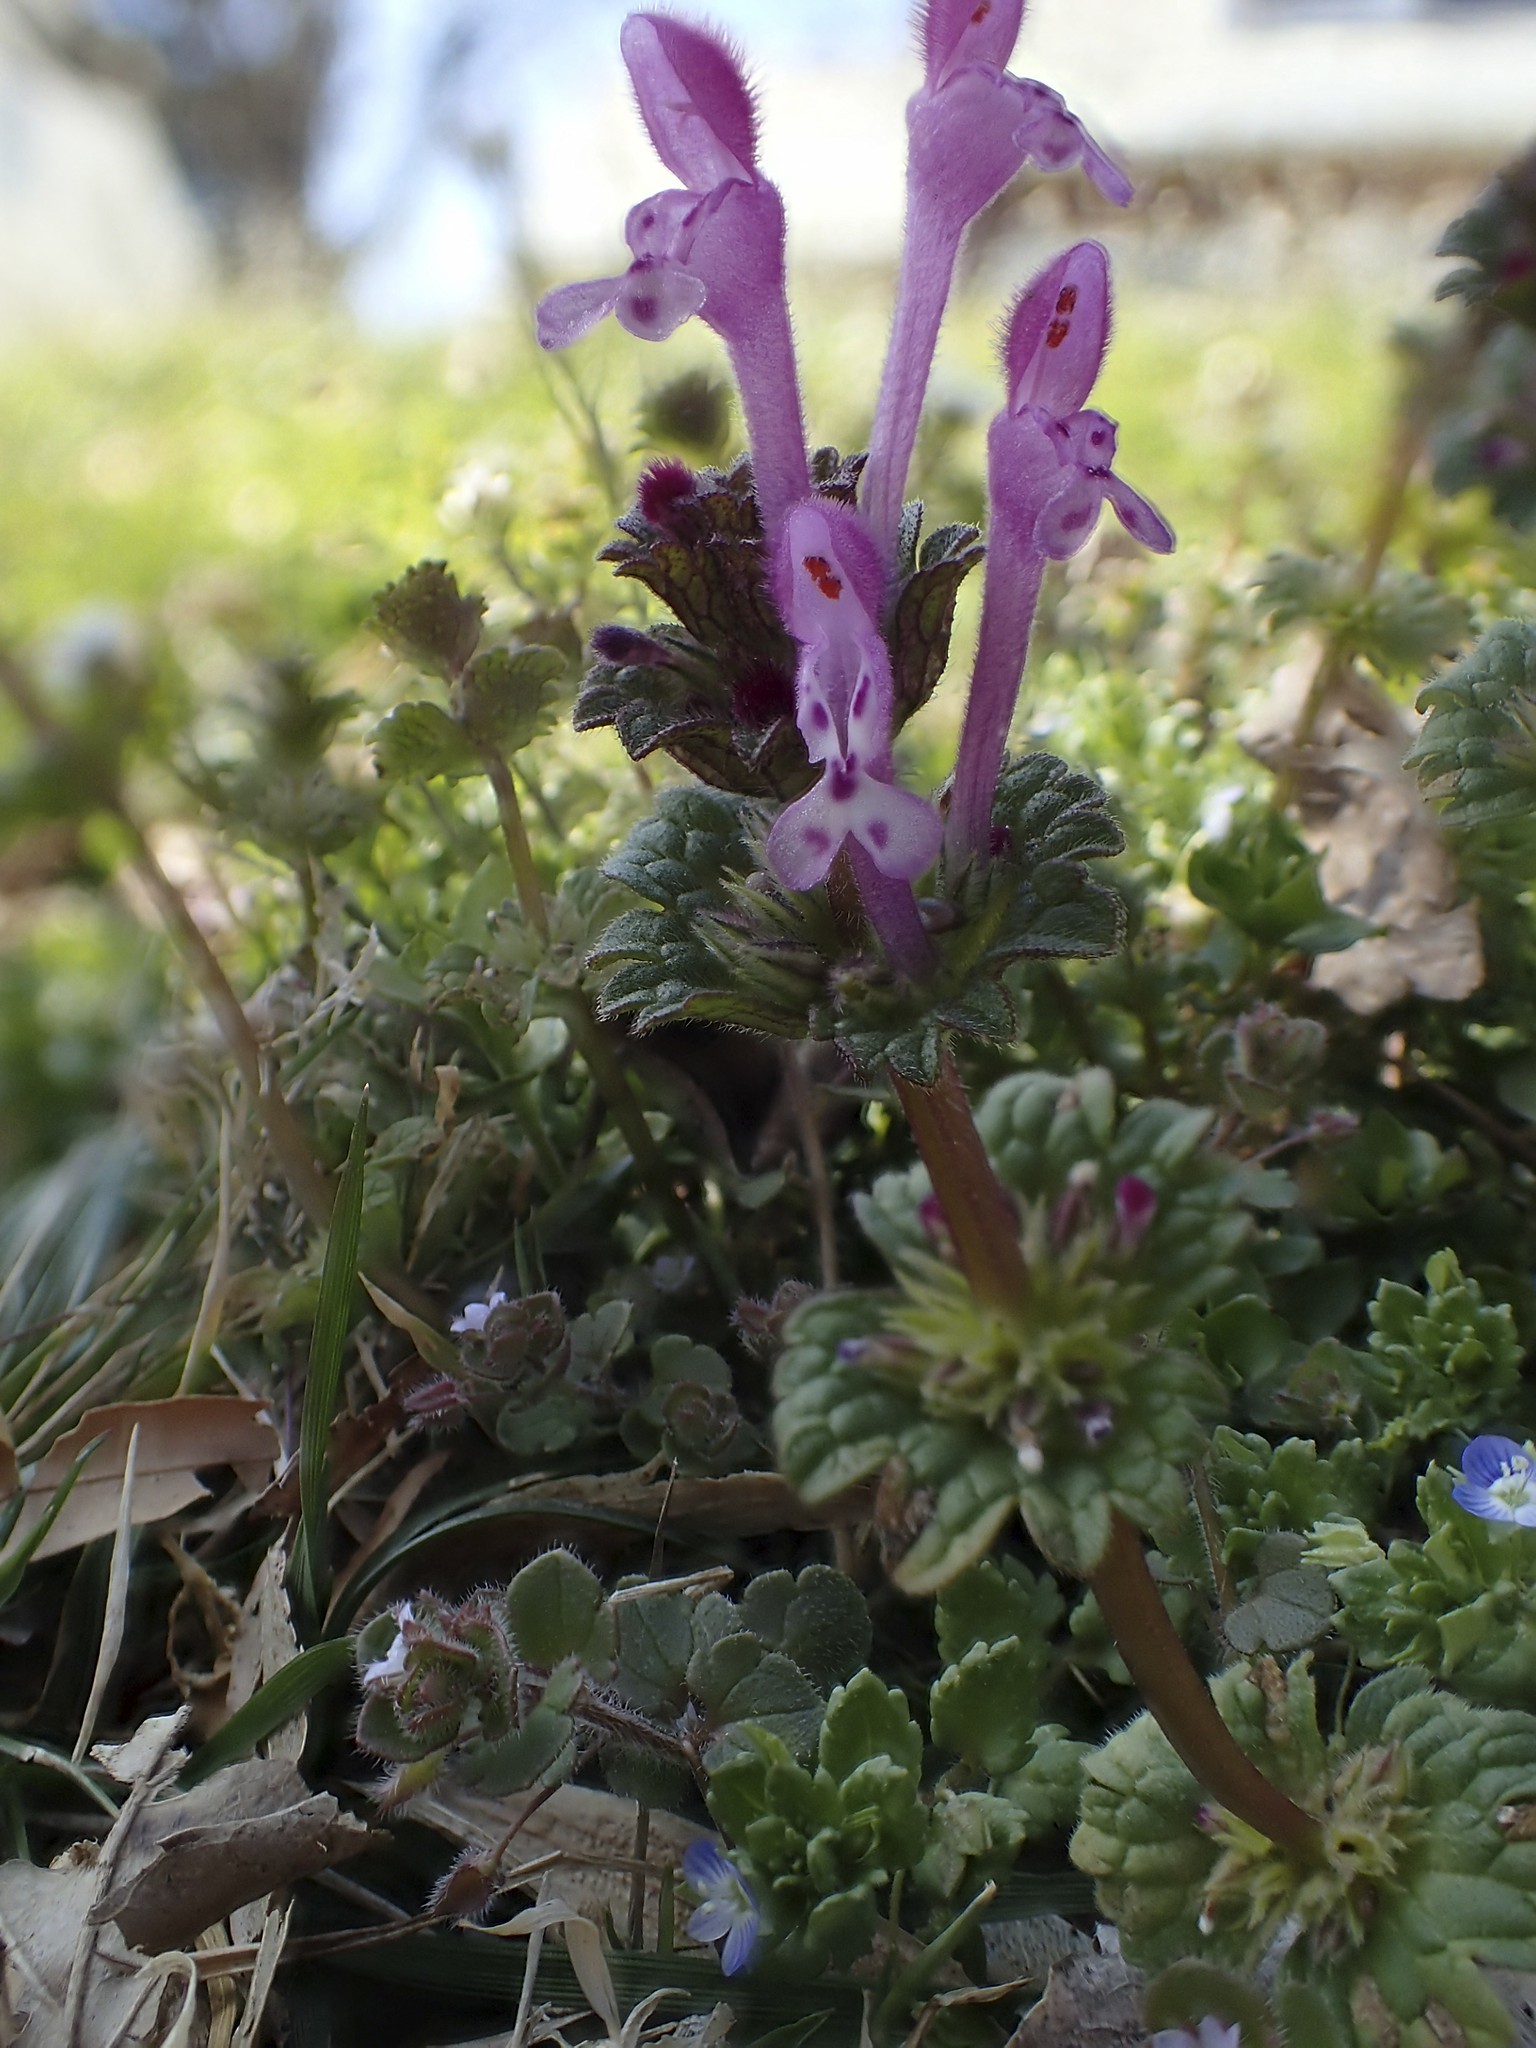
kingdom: Plantae
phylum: Tracheophyta
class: Magnoliopsida
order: Lamiales
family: Lamiaceae
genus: Lamium
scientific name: Lamium amplexicaule
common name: Henbit dead-nettle
